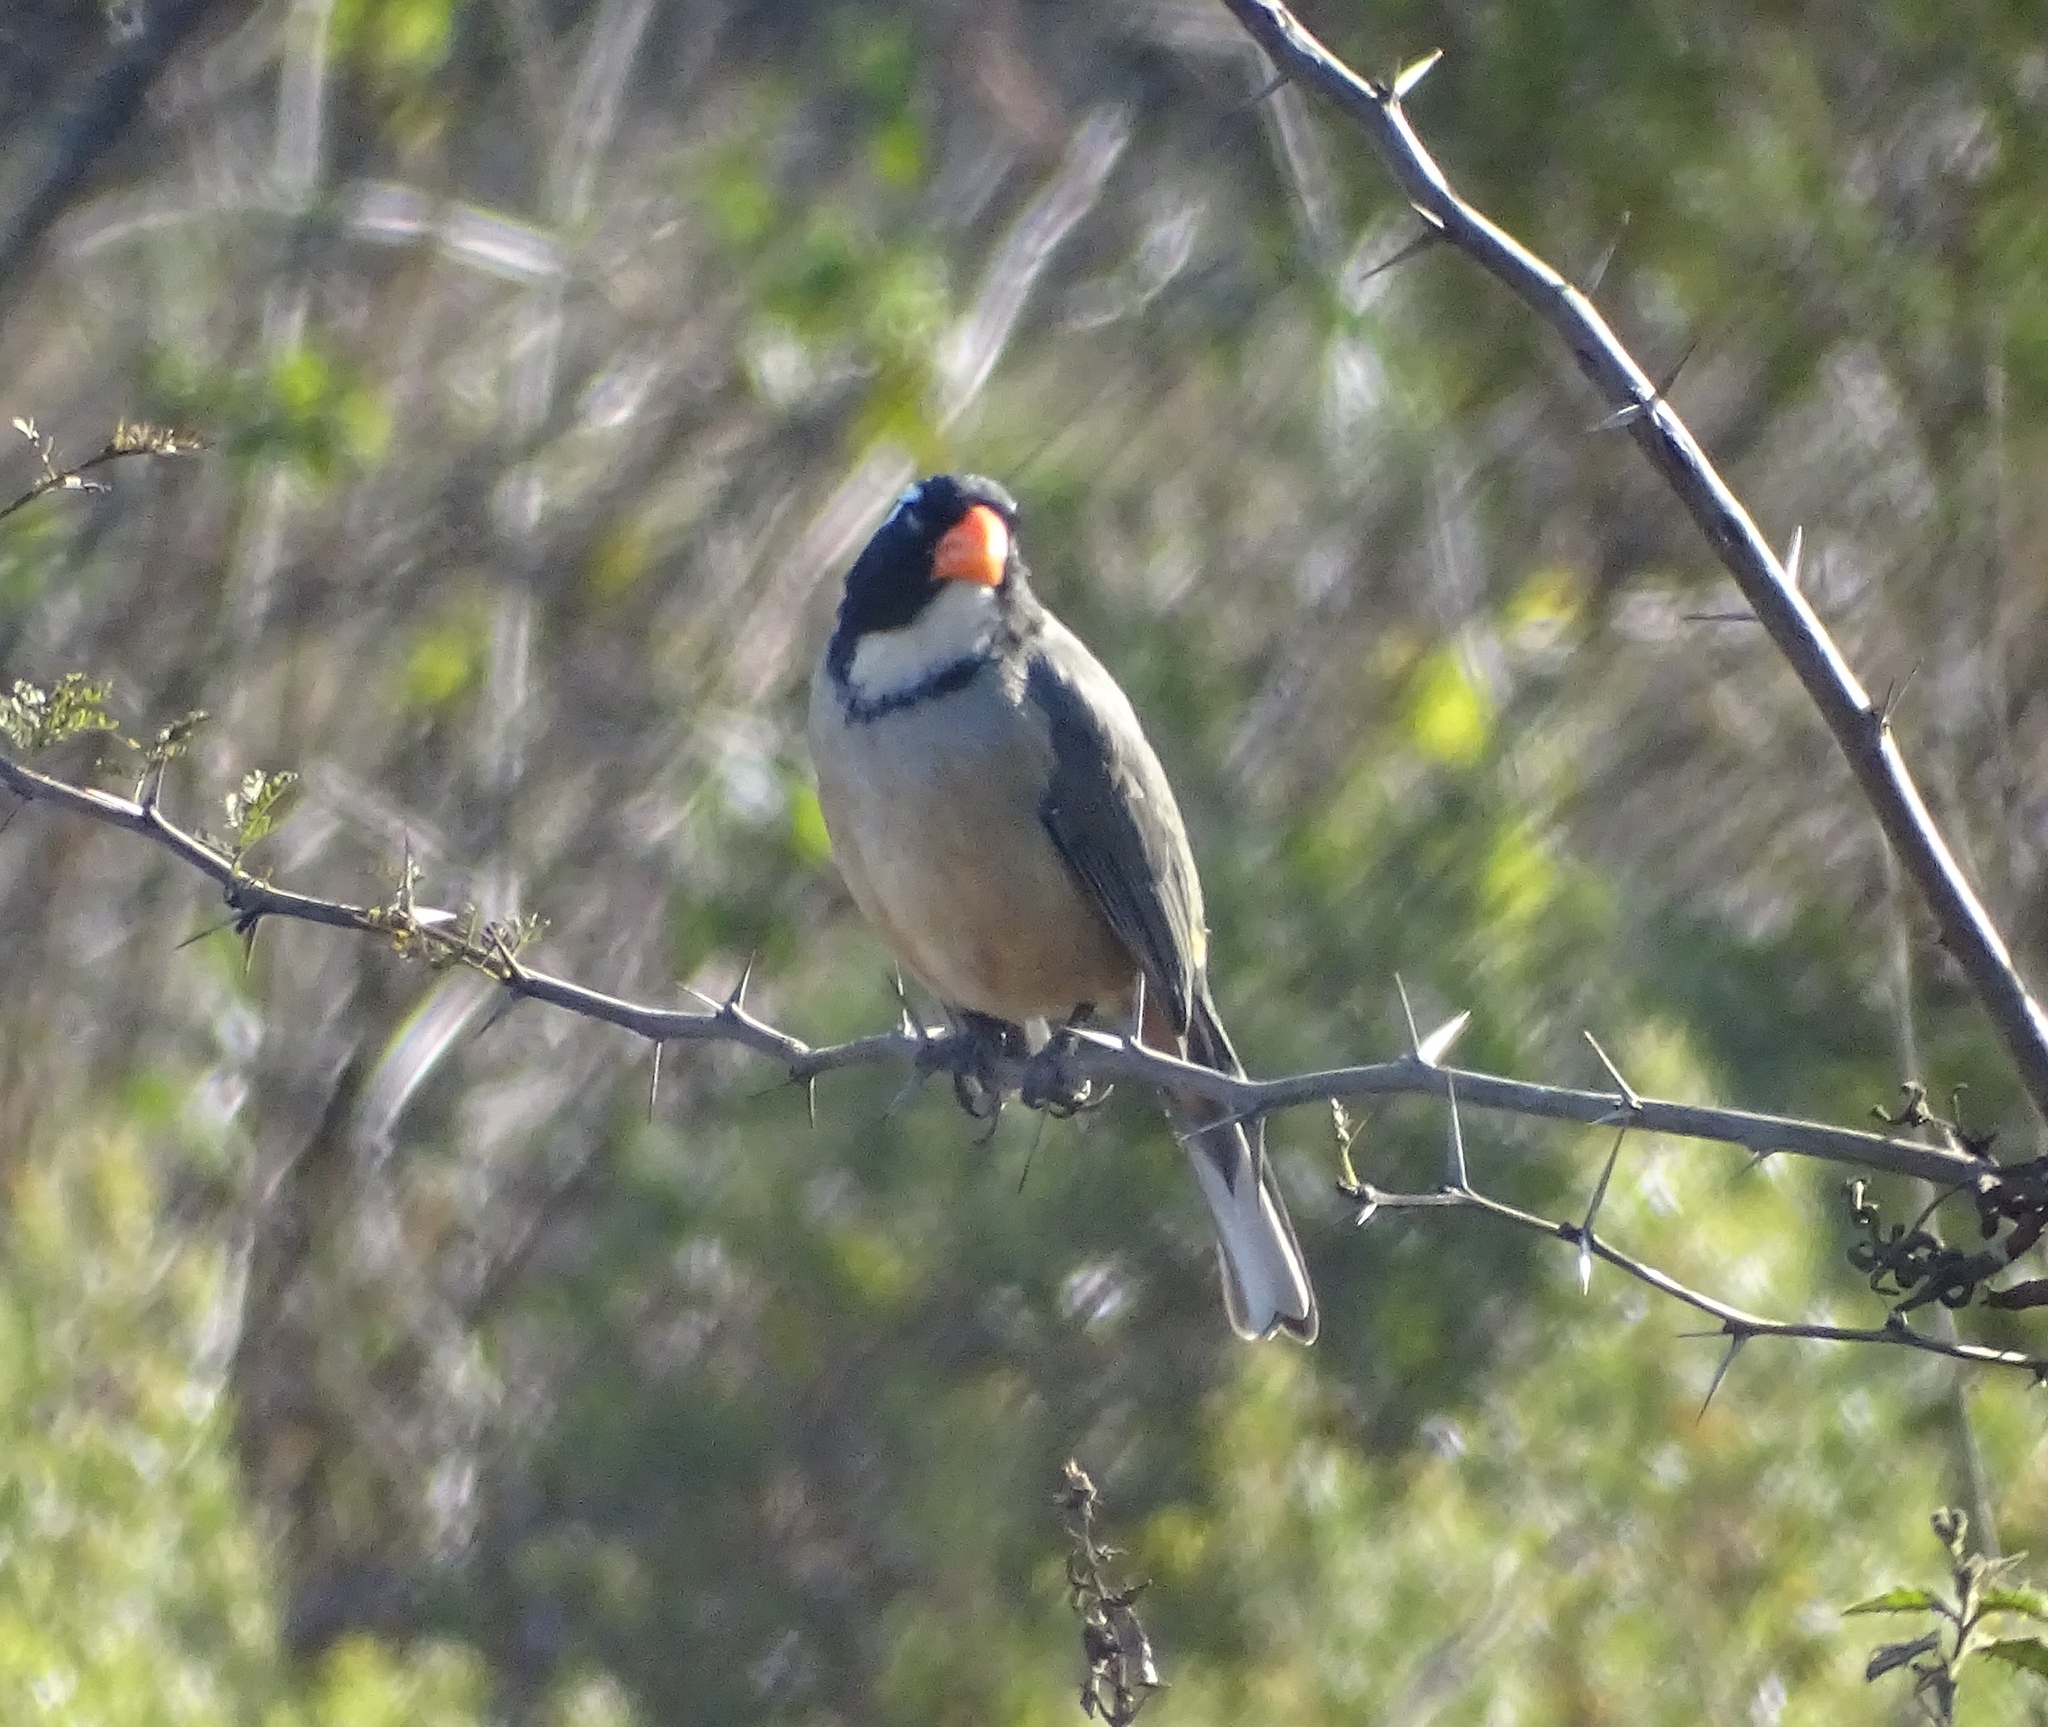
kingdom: Animalia
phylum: Chordata
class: Aves
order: Passeriformes
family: Thraupidae
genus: Saltator
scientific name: Saltator aurantiirostris
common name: Golden-billed saltator
